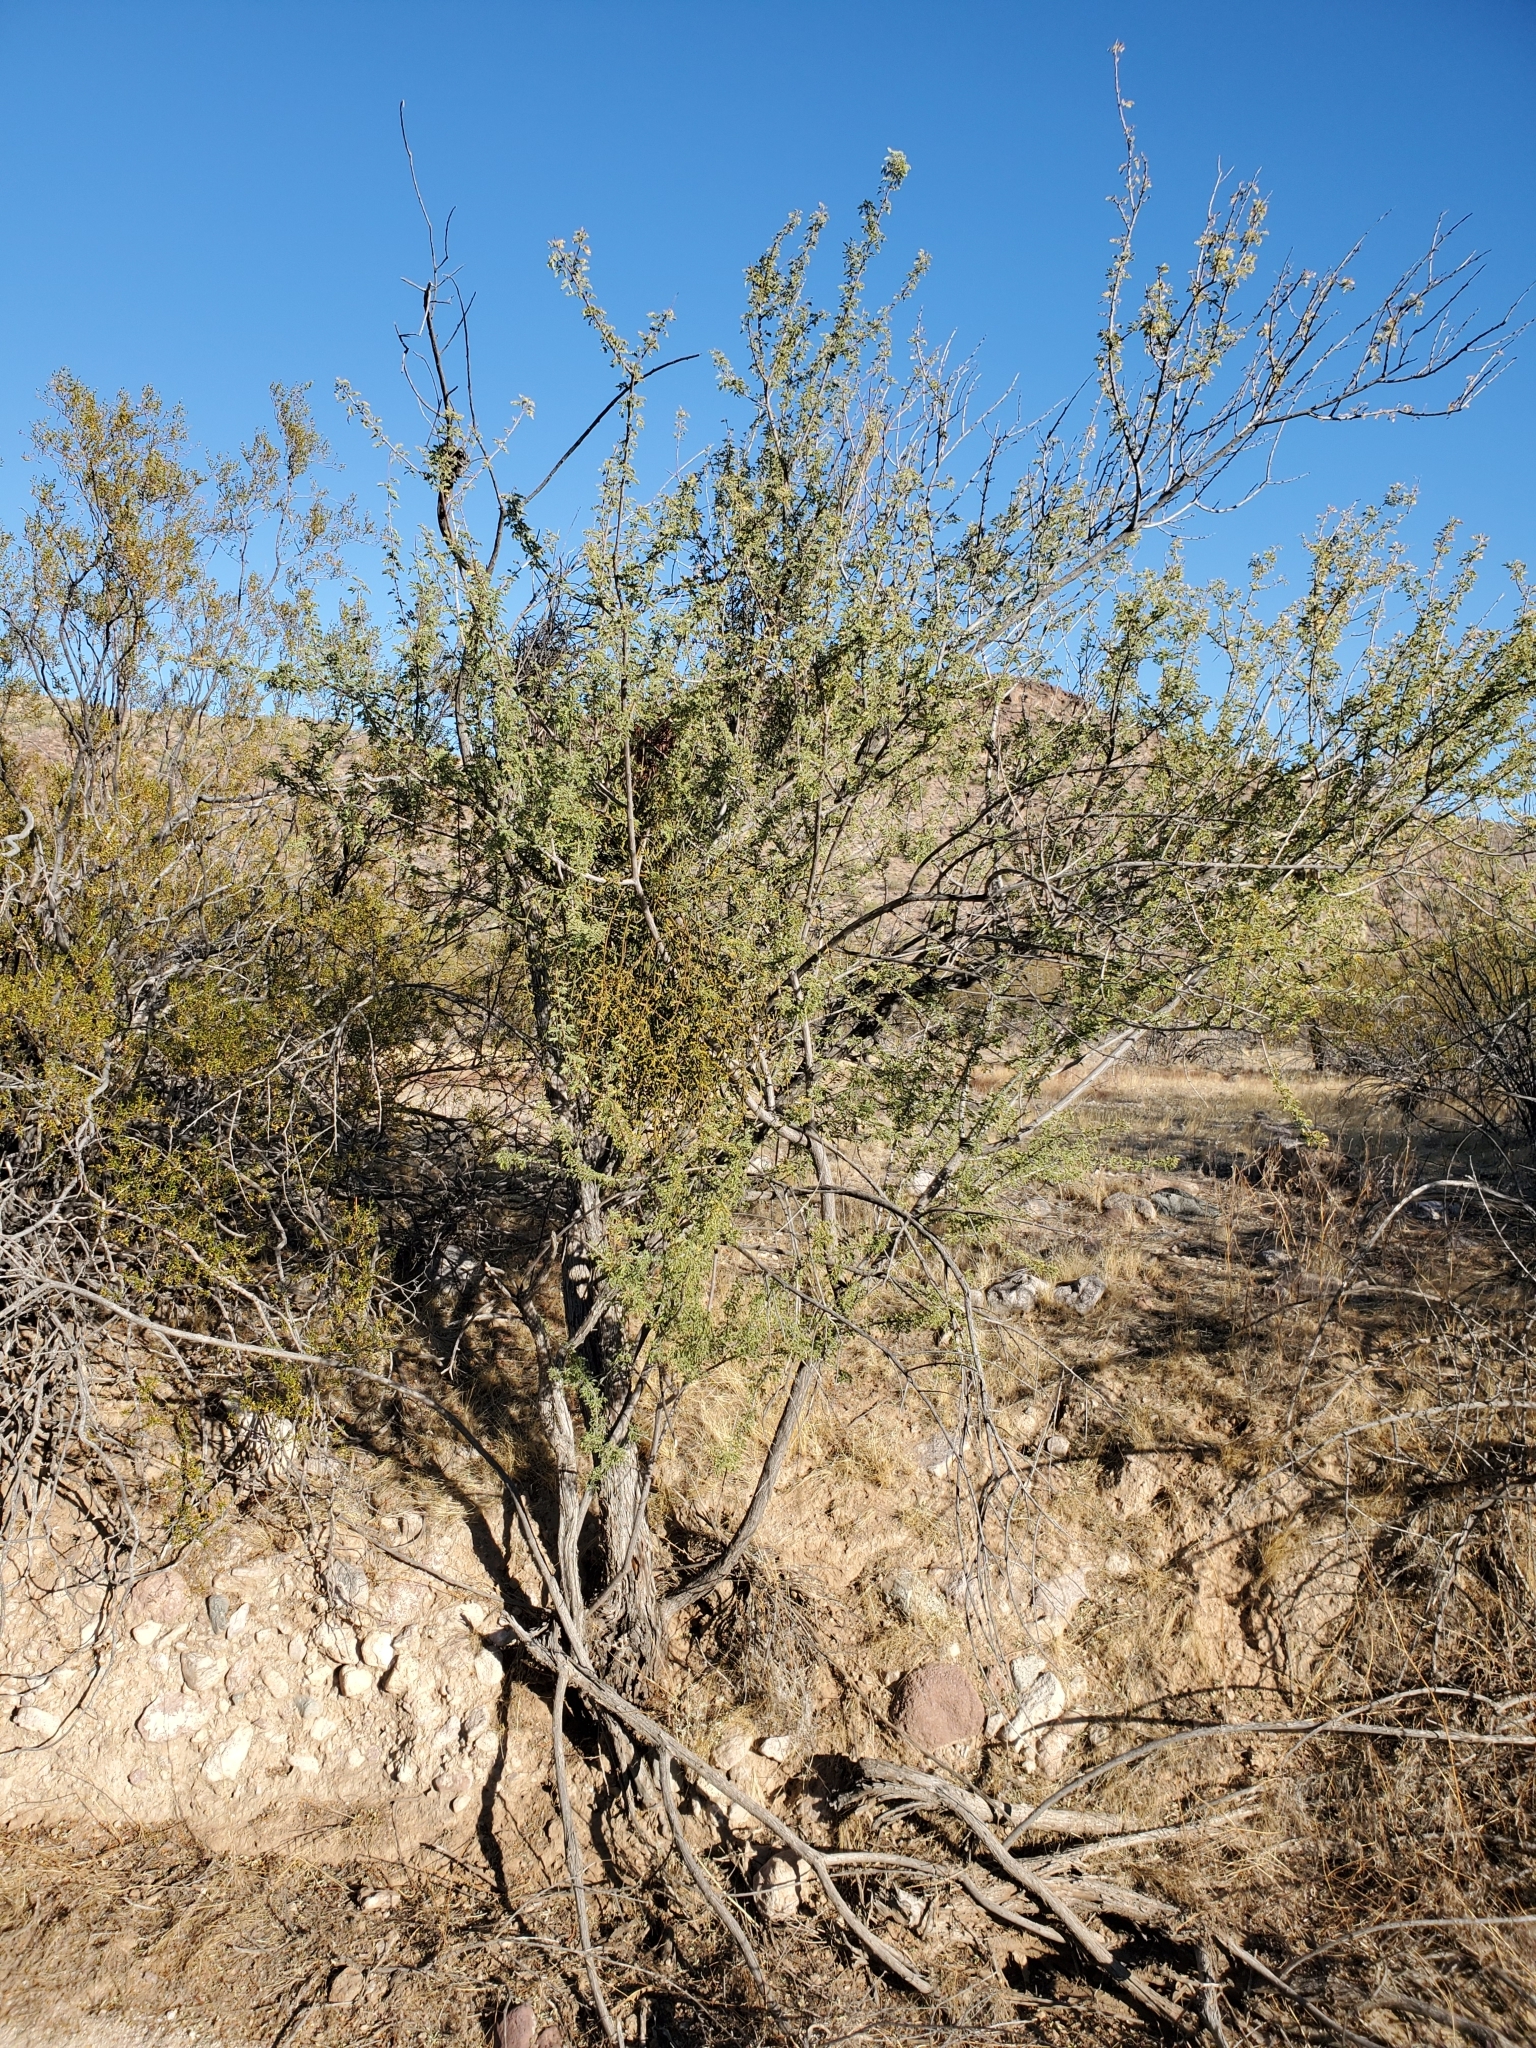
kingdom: Plantae
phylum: Tracheophyta
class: Magnoliopsida
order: Fabales
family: Fabaceae
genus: Senegalia
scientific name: Senegalia greggii
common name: Texas-mimosa
